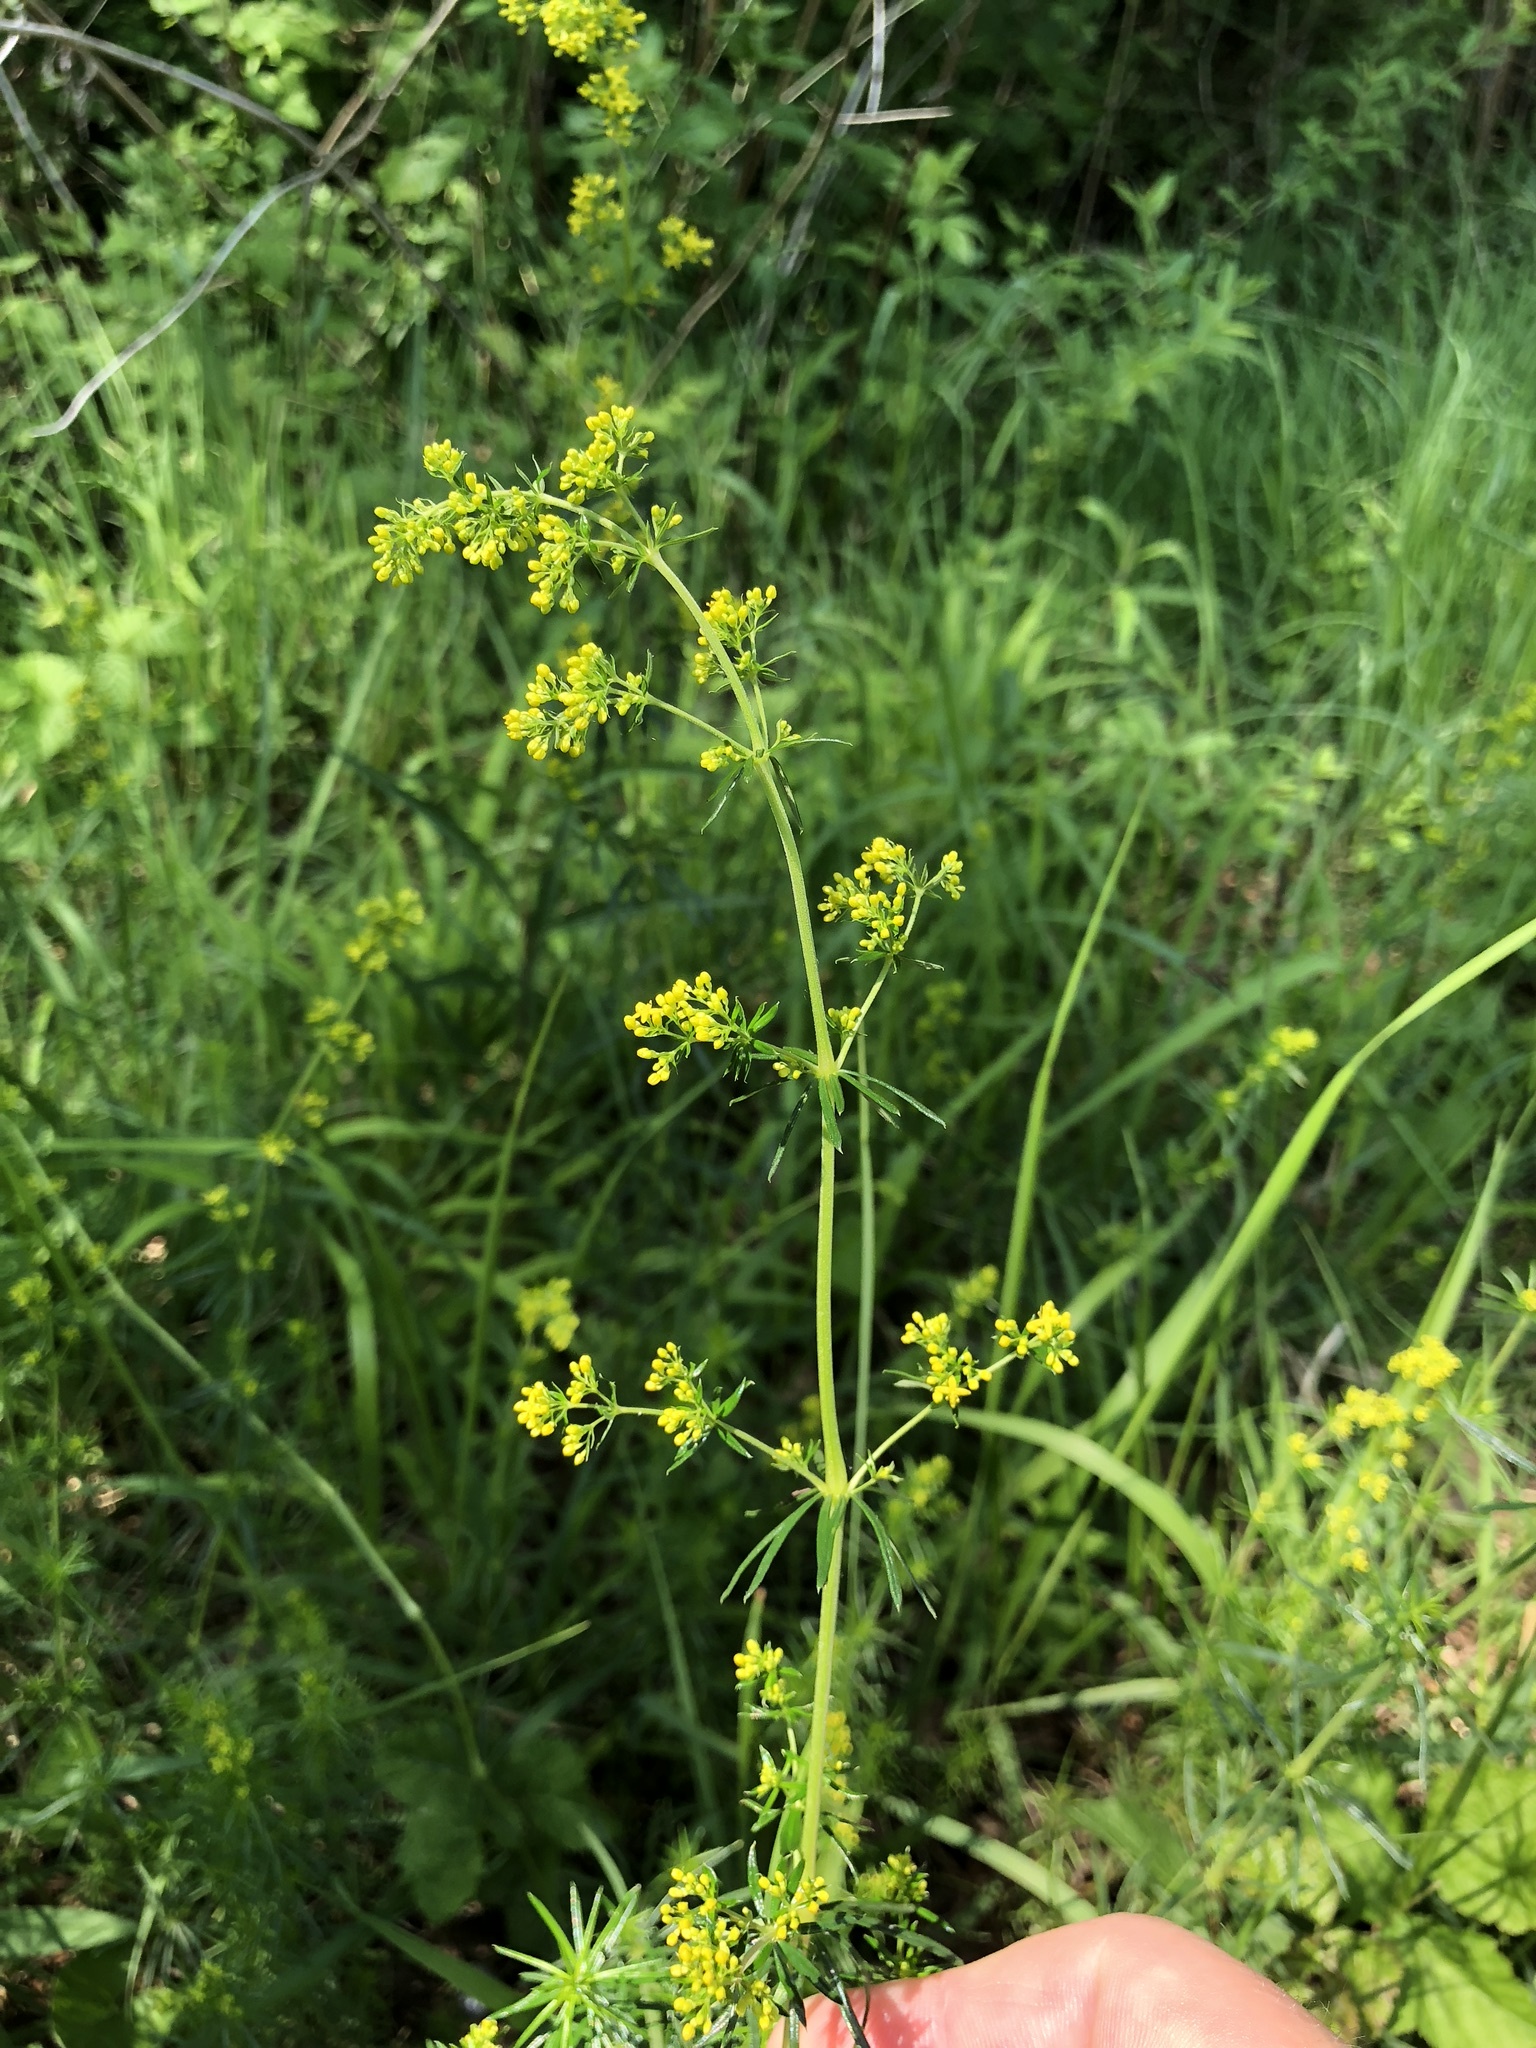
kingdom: Plantae
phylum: Tracheophyta
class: Magnoliopsida
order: Gentianales
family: Rubiaceae
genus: Galium
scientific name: Galium verum
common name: Lady's bedstraw
